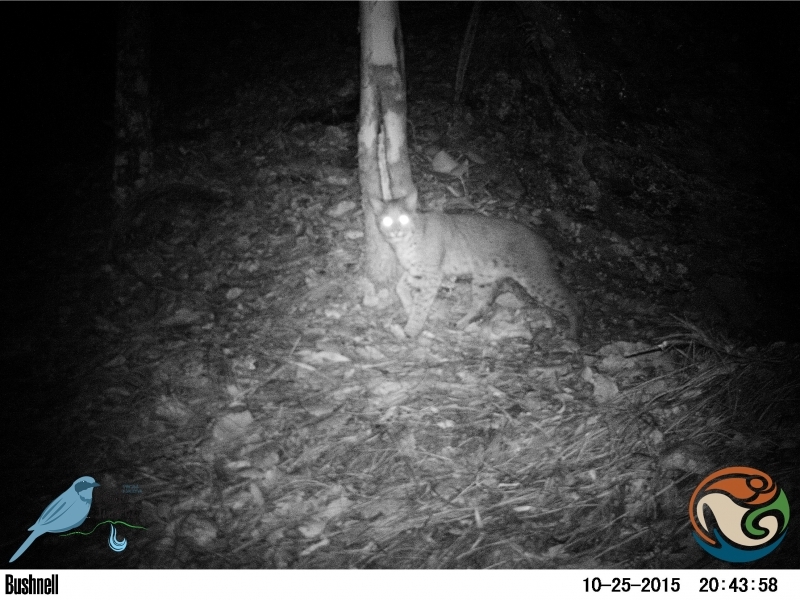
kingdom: Animalia
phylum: Chordata
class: Mammalia
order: Carnivora
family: Felidae
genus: Lynx
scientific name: Lynx rufus
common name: Bobcat
